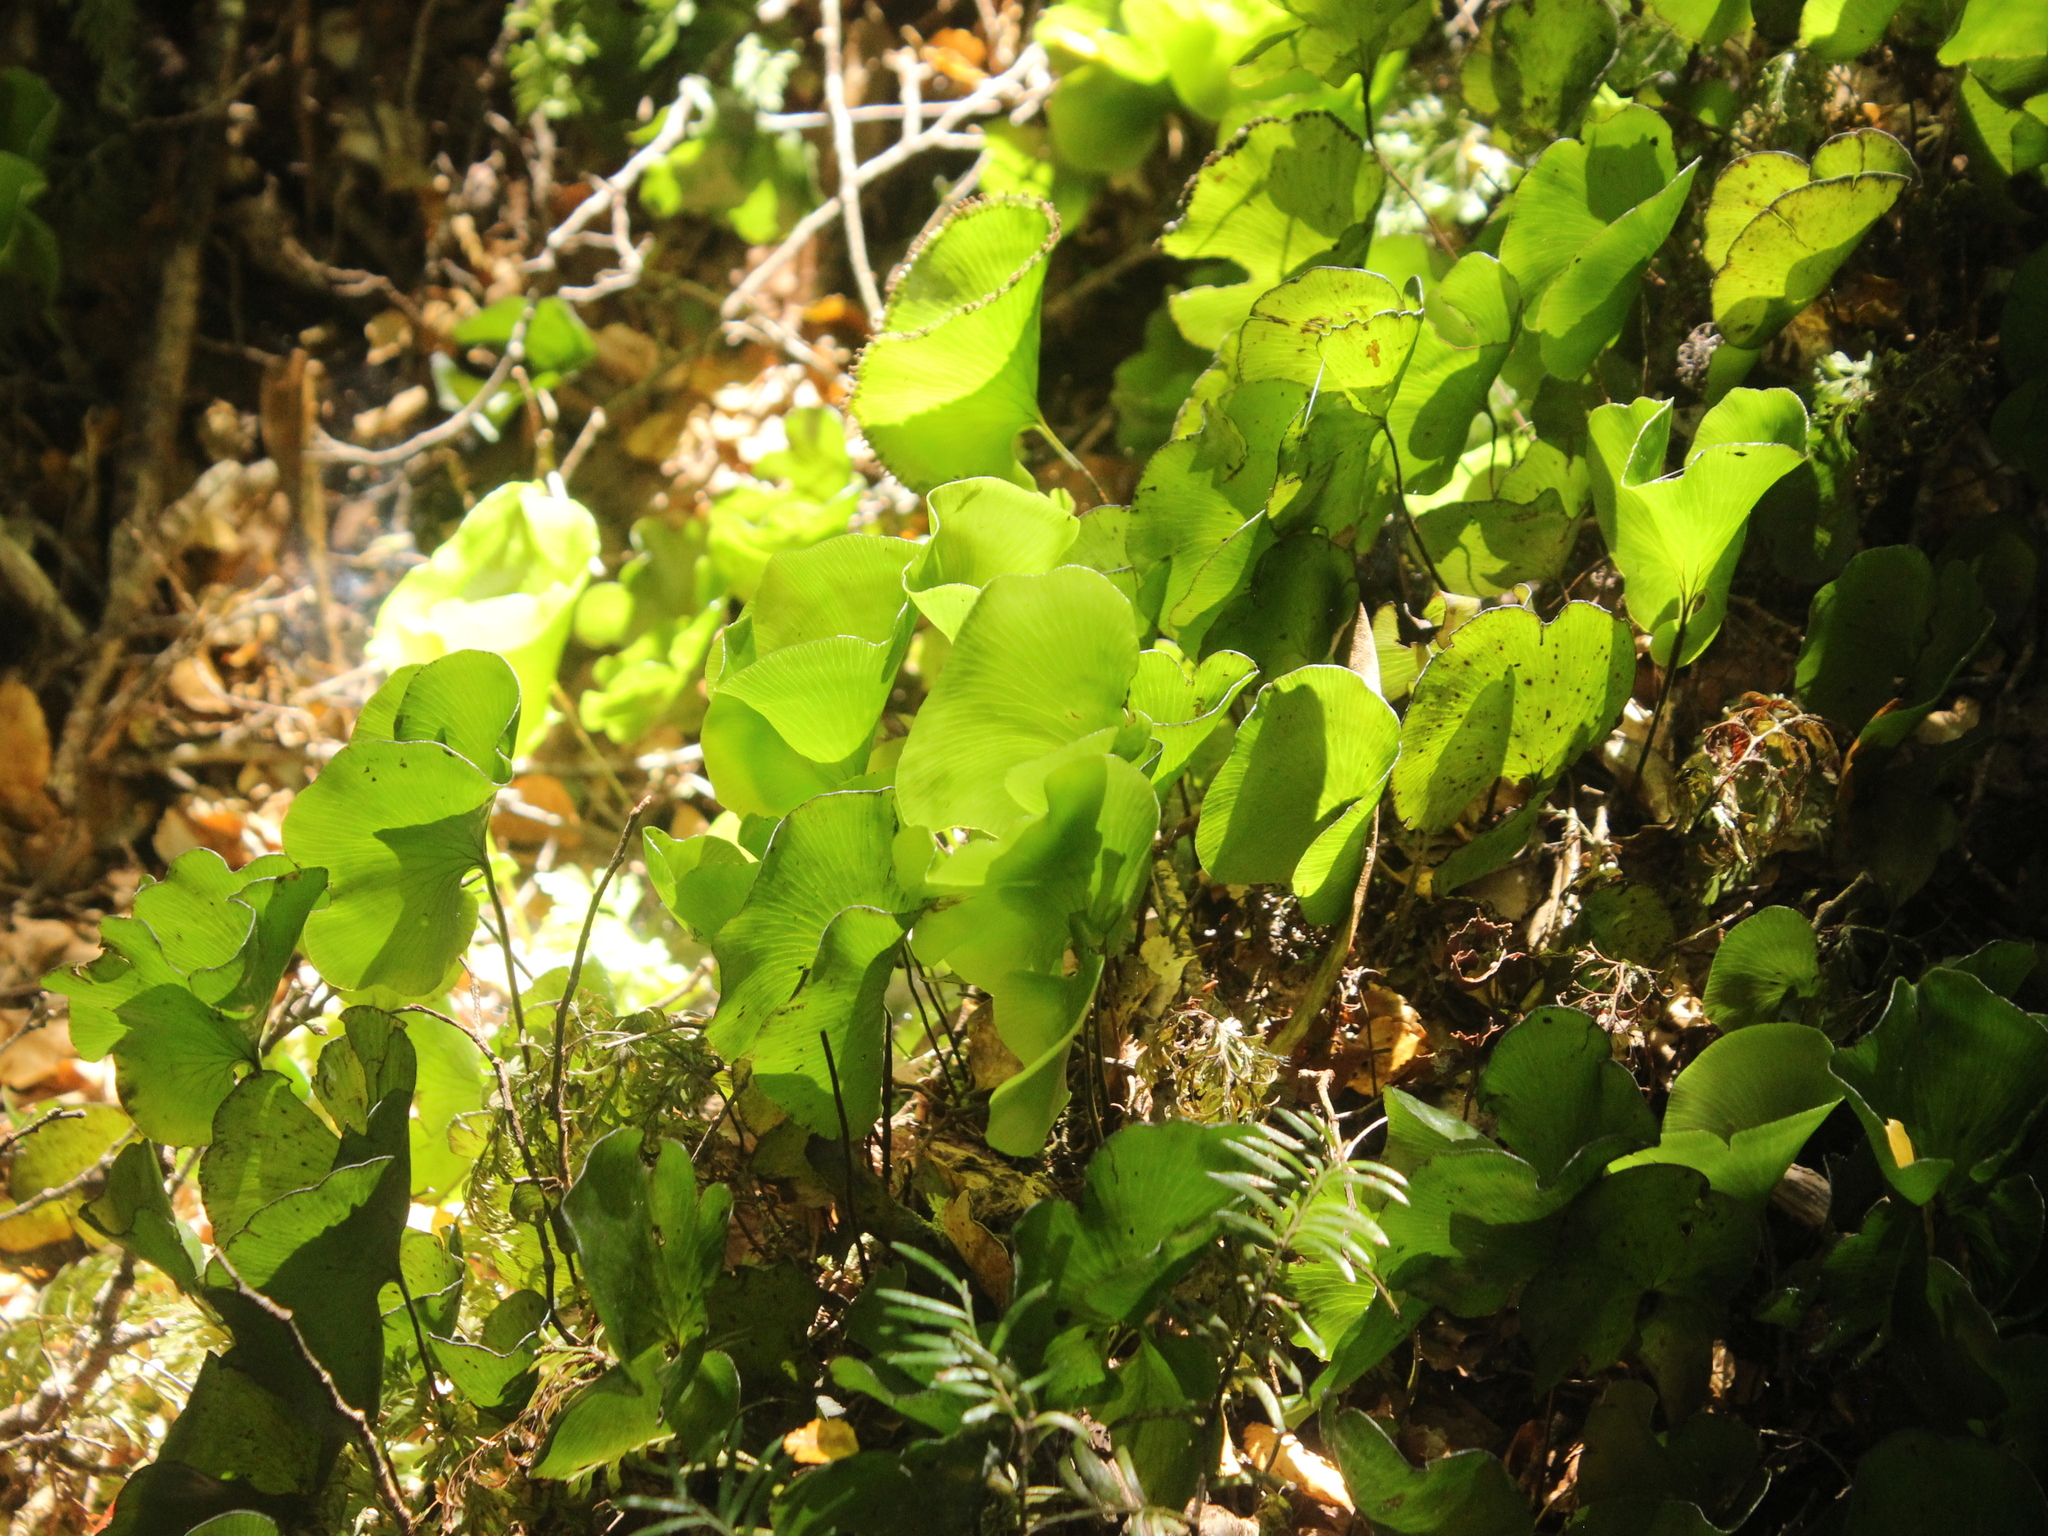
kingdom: Plantae
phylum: Tracheophyta
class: Polypodiopsida
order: Hymenophyllales
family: Hymenophyllaceae
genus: Hymenophyllum
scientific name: Hymenophyllum nephrophyllum
